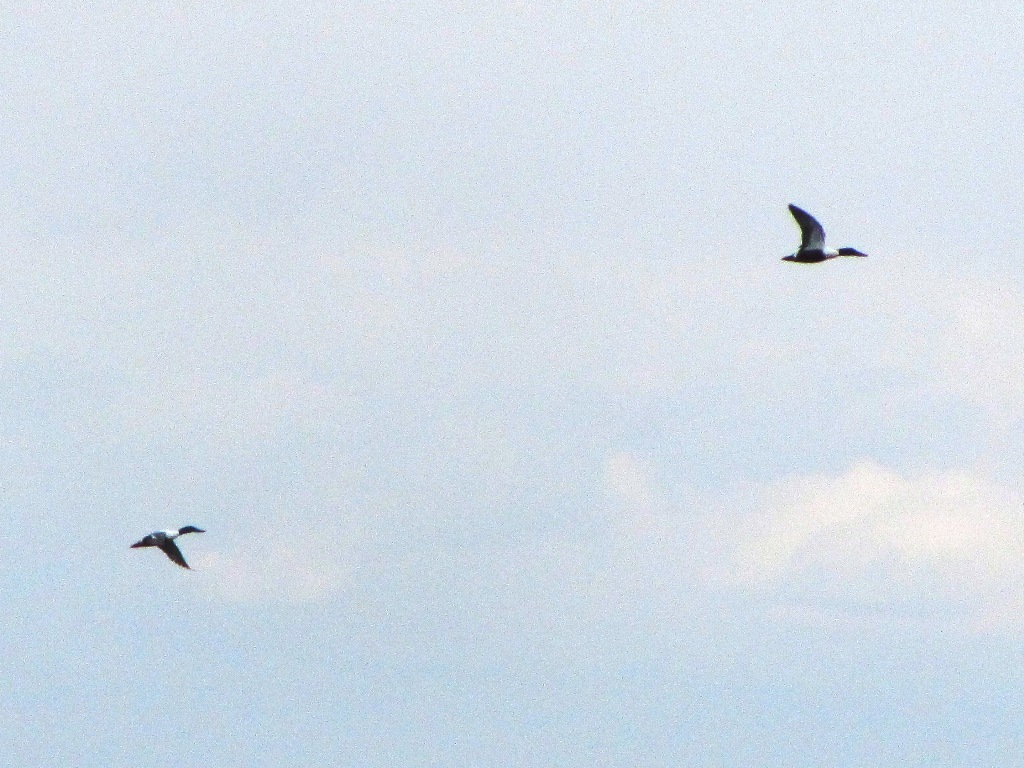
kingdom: Animalia
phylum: Chordata
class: Aves
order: Anseriformes
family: Anatidae
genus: Spatula
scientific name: Spatula clypeata
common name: Northern shoveler
